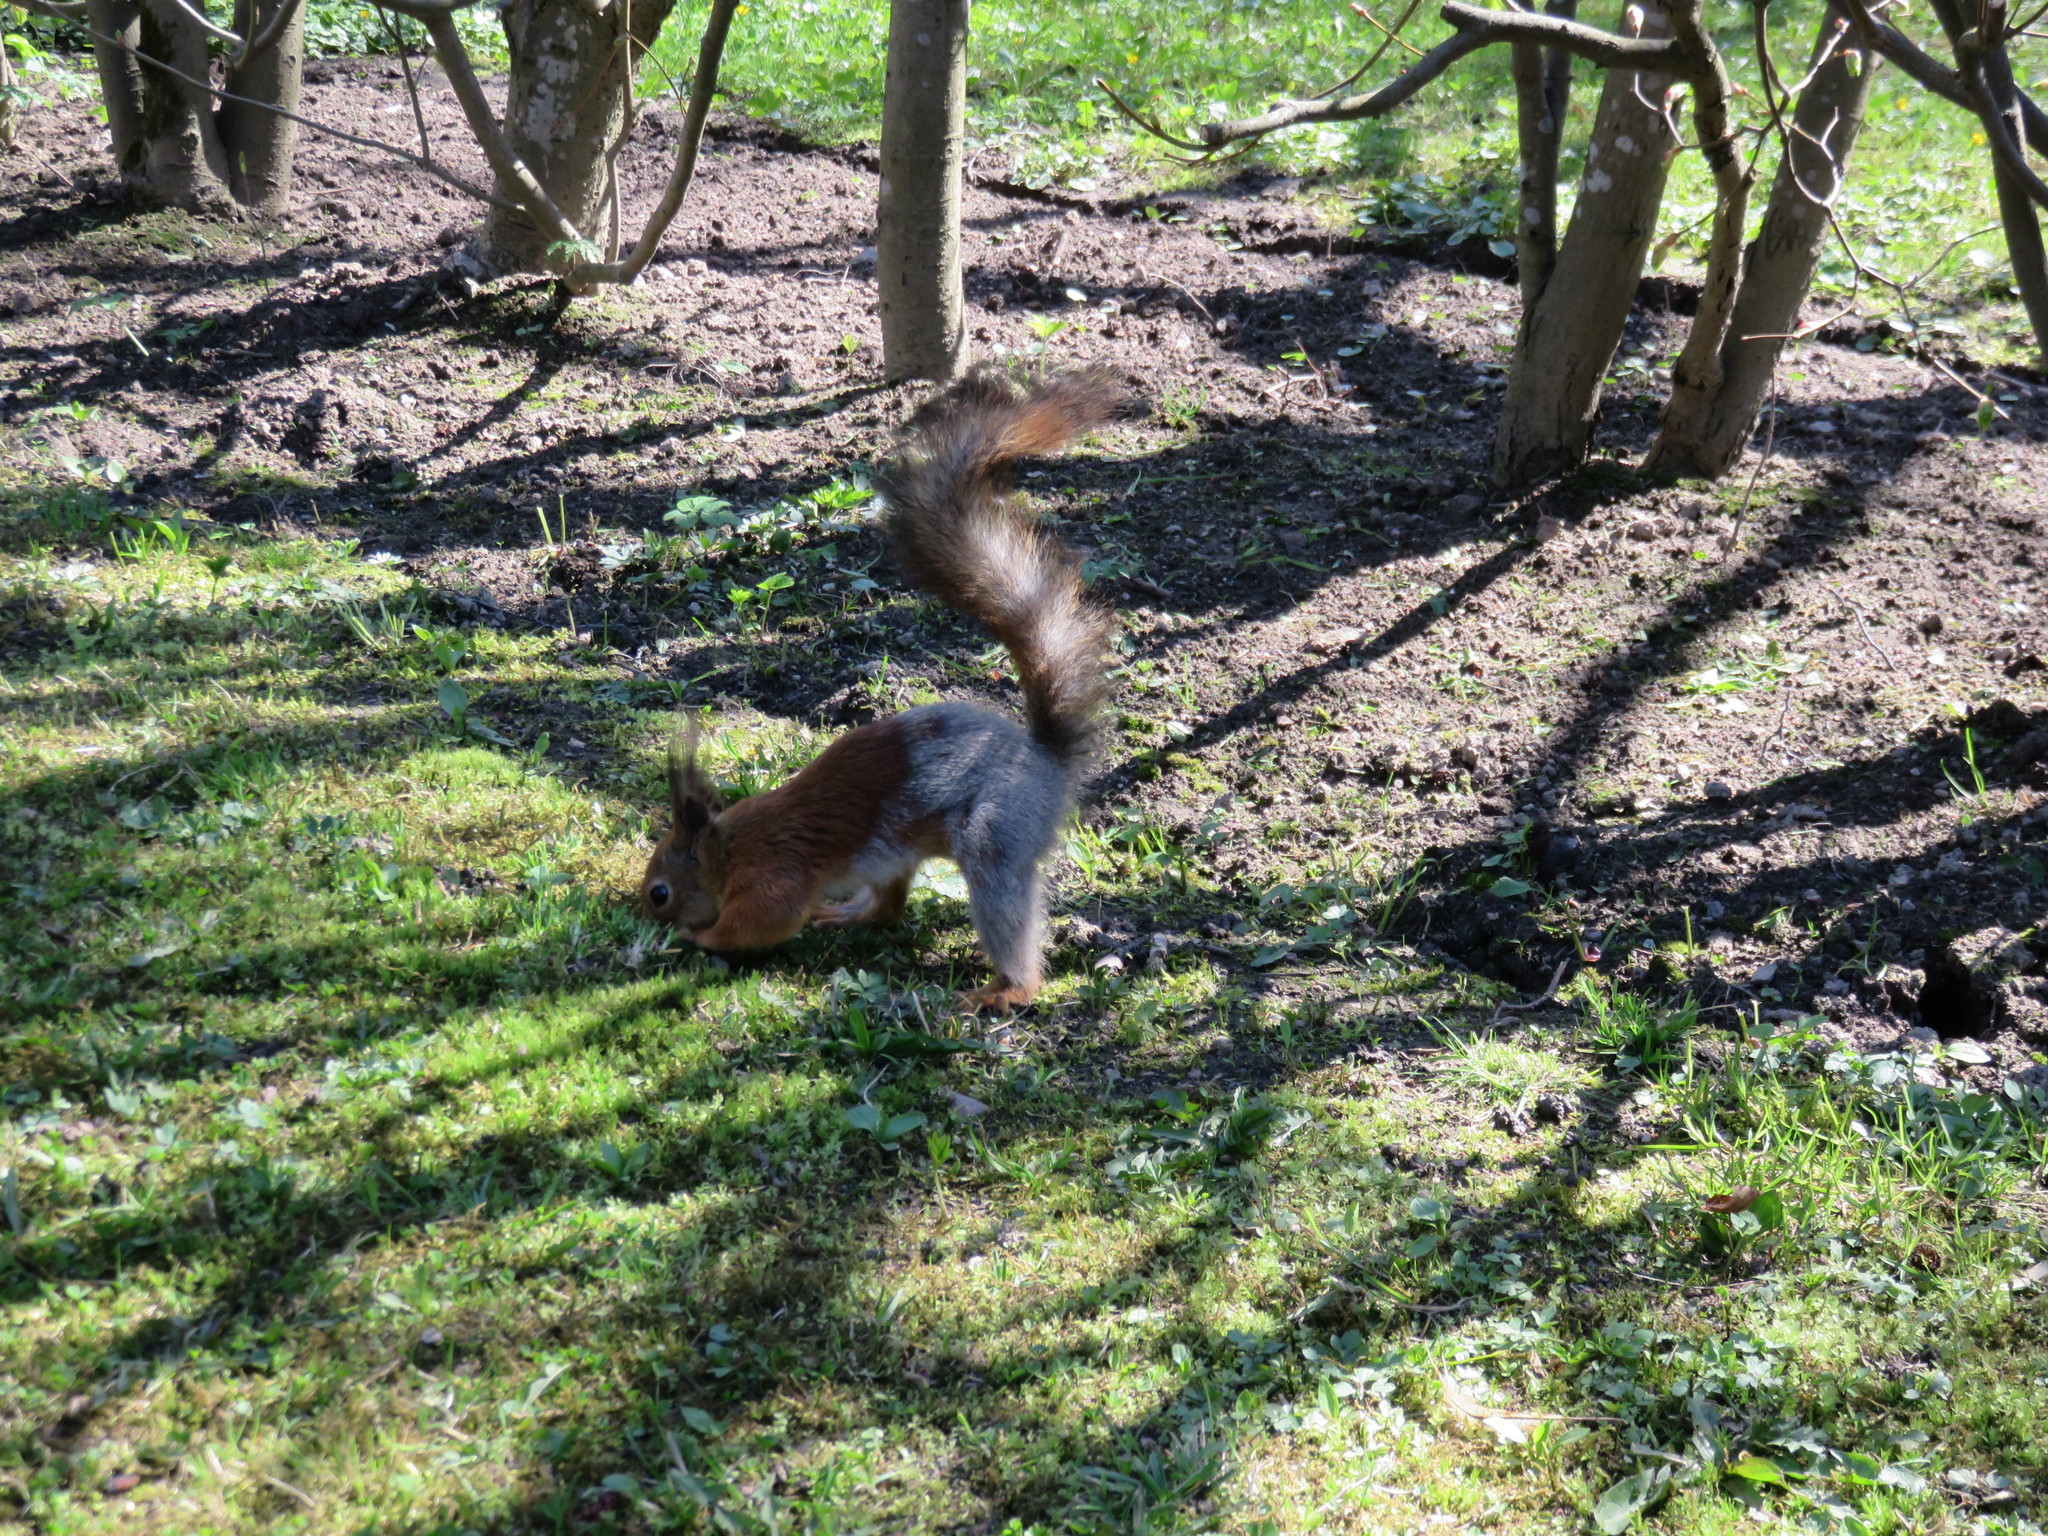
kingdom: Animalia
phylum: Chordata
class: Mammalia
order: Rodentia
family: Sciuridae
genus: Sciurus
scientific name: Sciurus vulgaris
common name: Eurasian red squirrel
